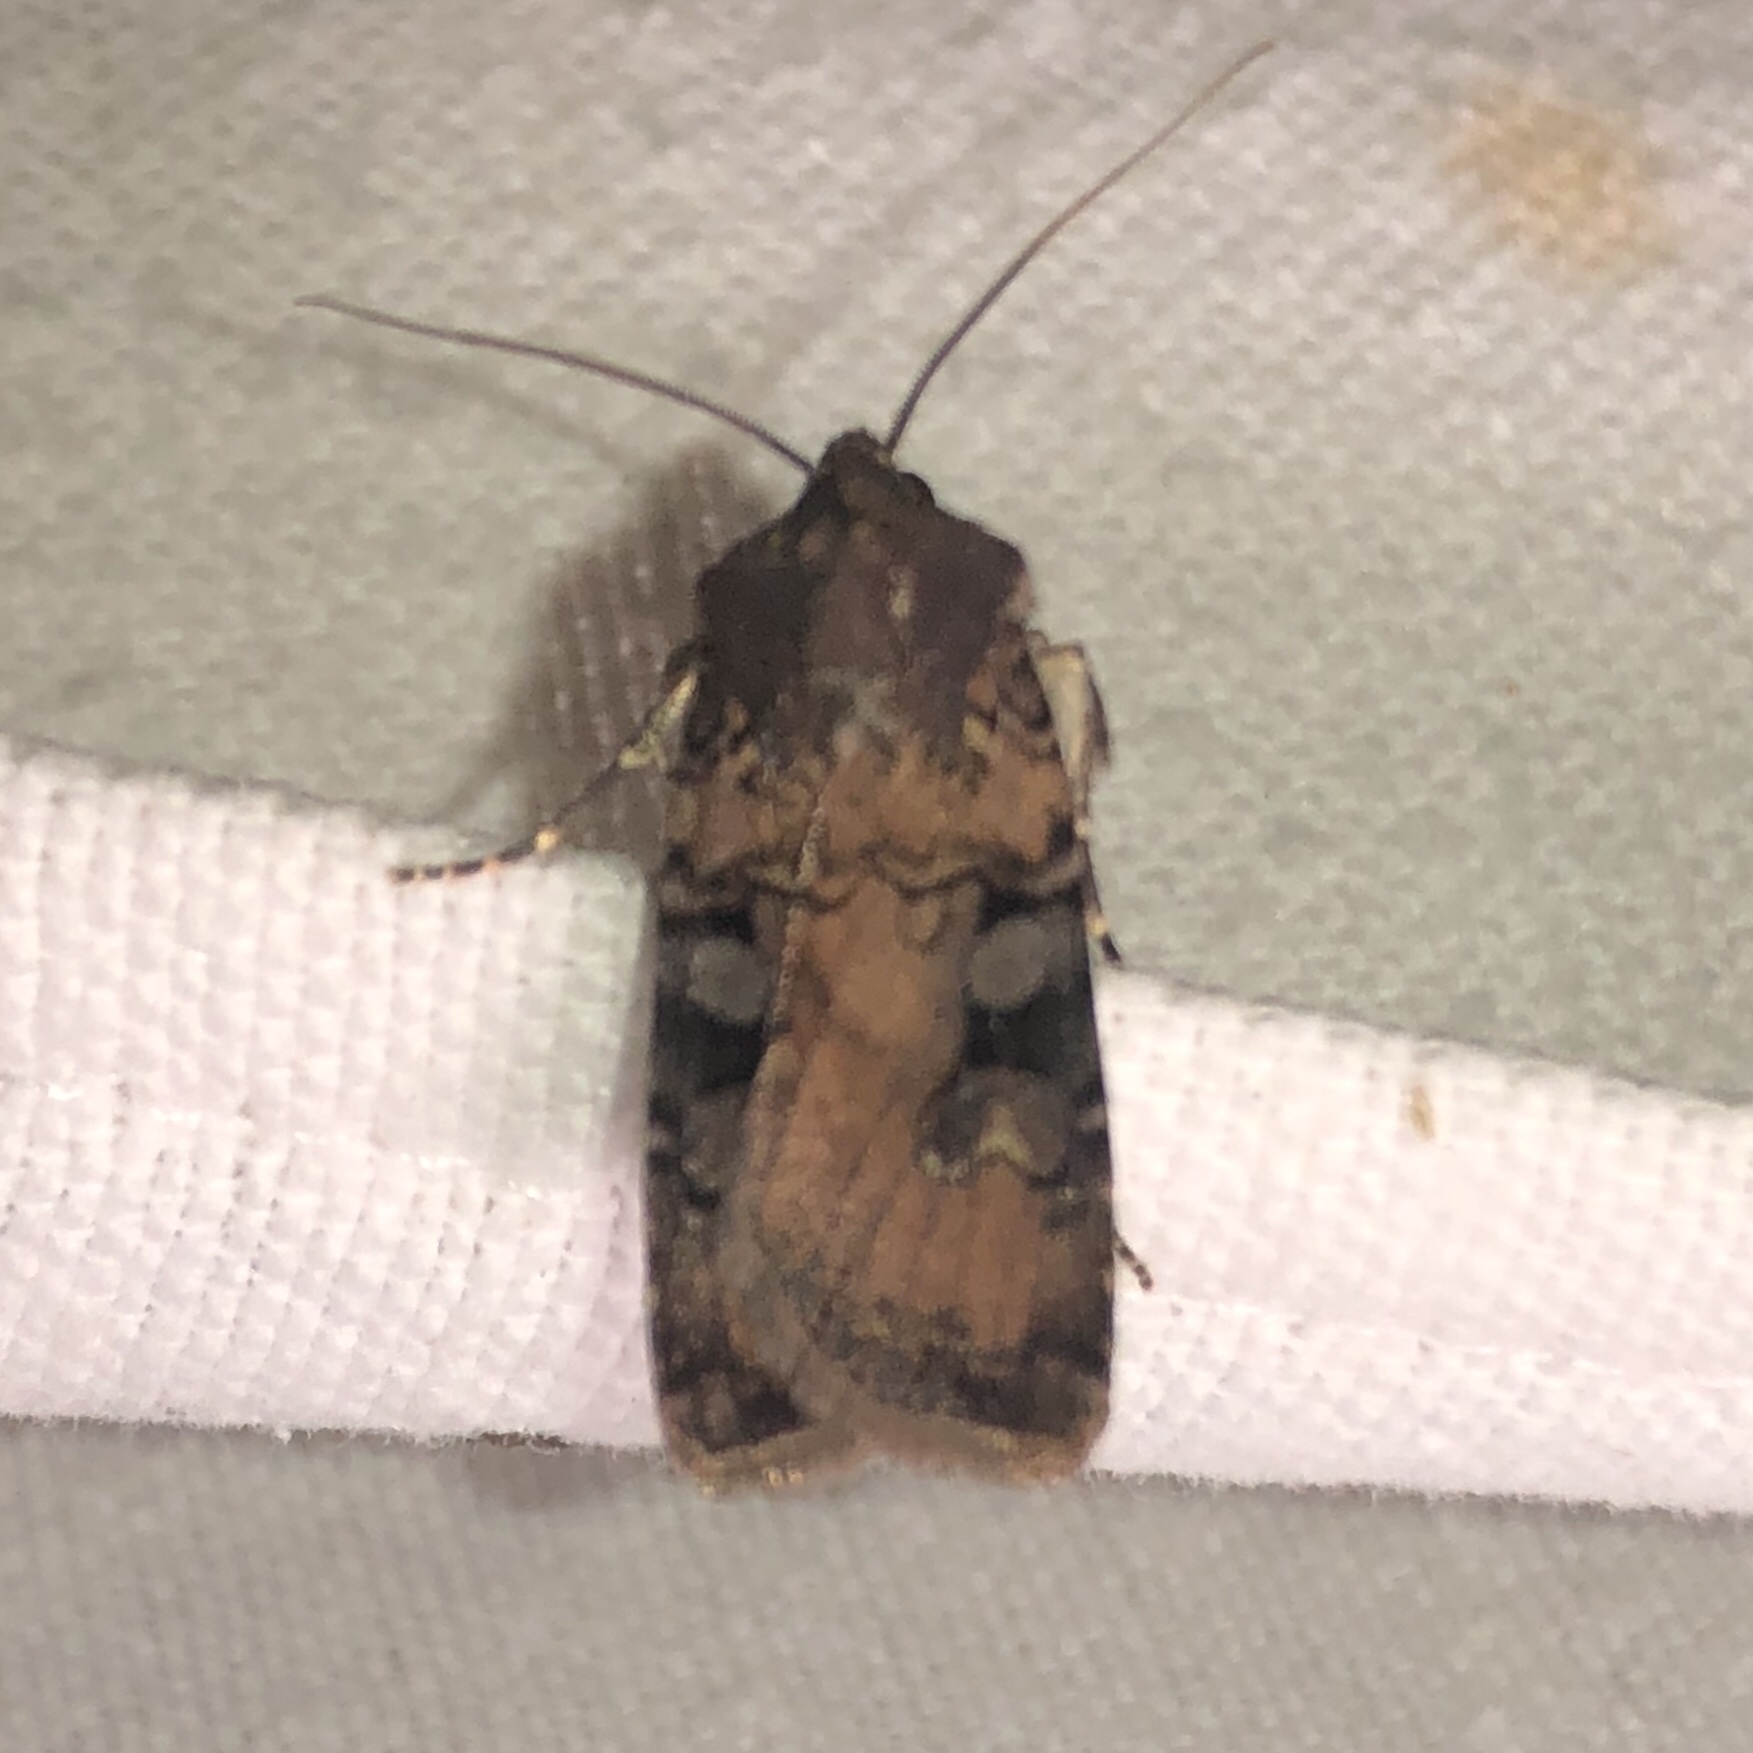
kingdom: Animalia
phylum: Arthropoda
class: Insecta
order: Lepidoptera
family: Noctuidae
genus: Euxoa
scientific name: Euxoa albipennis
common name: White-striped dart
